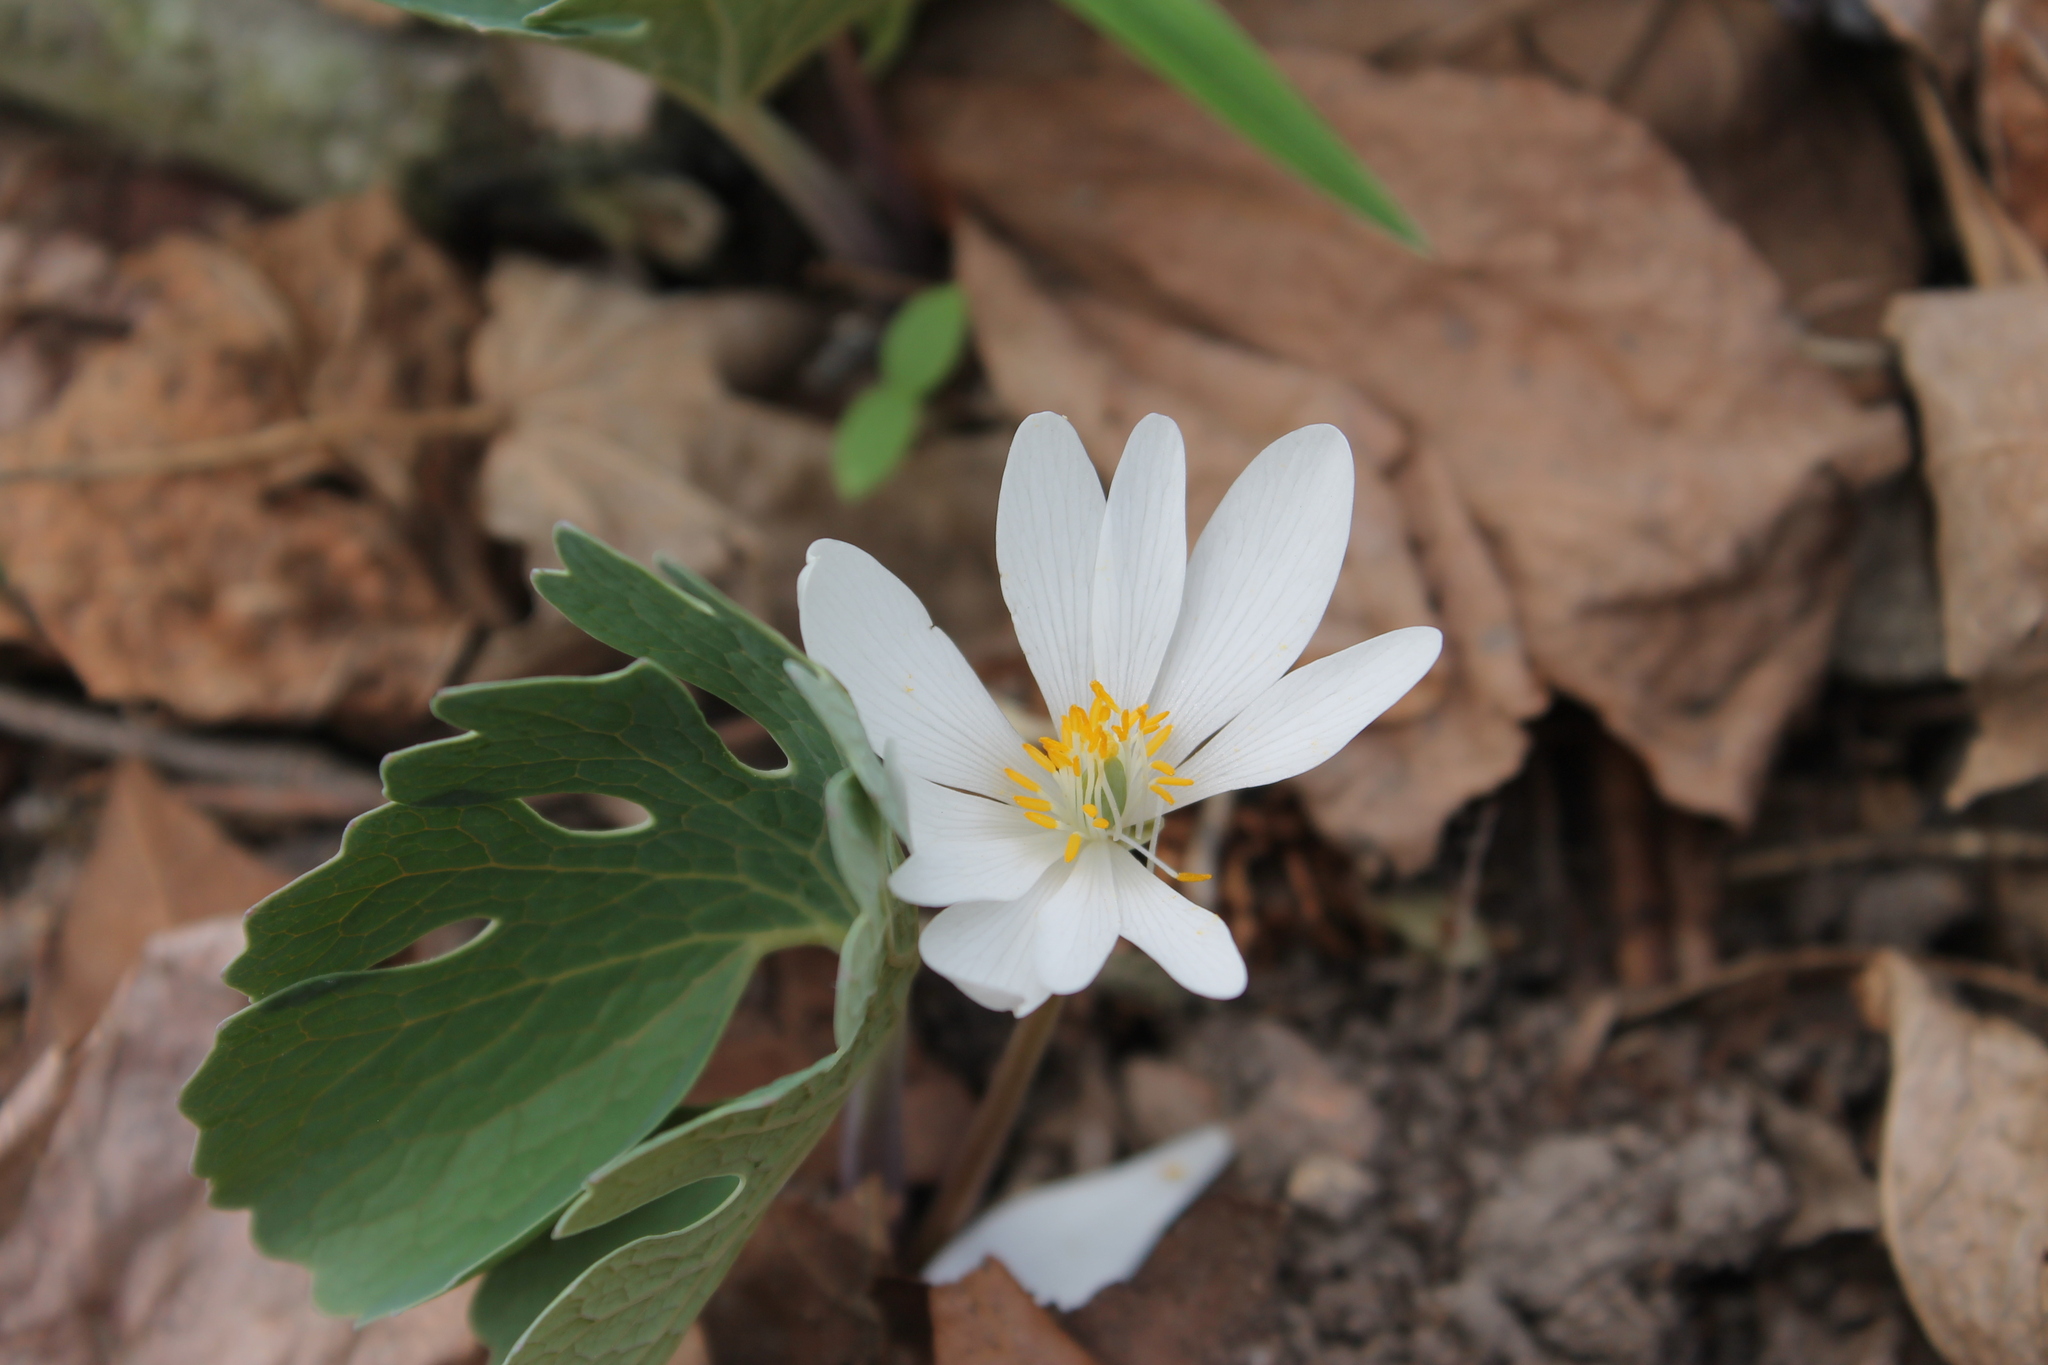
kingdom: Plantae
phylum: Tracheophyta
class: Magnoliopsida
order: Ranunculales
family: Papaveraceae
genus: Sanguinaria
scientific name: Sanguinaria canadensis
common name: Bloodroot
